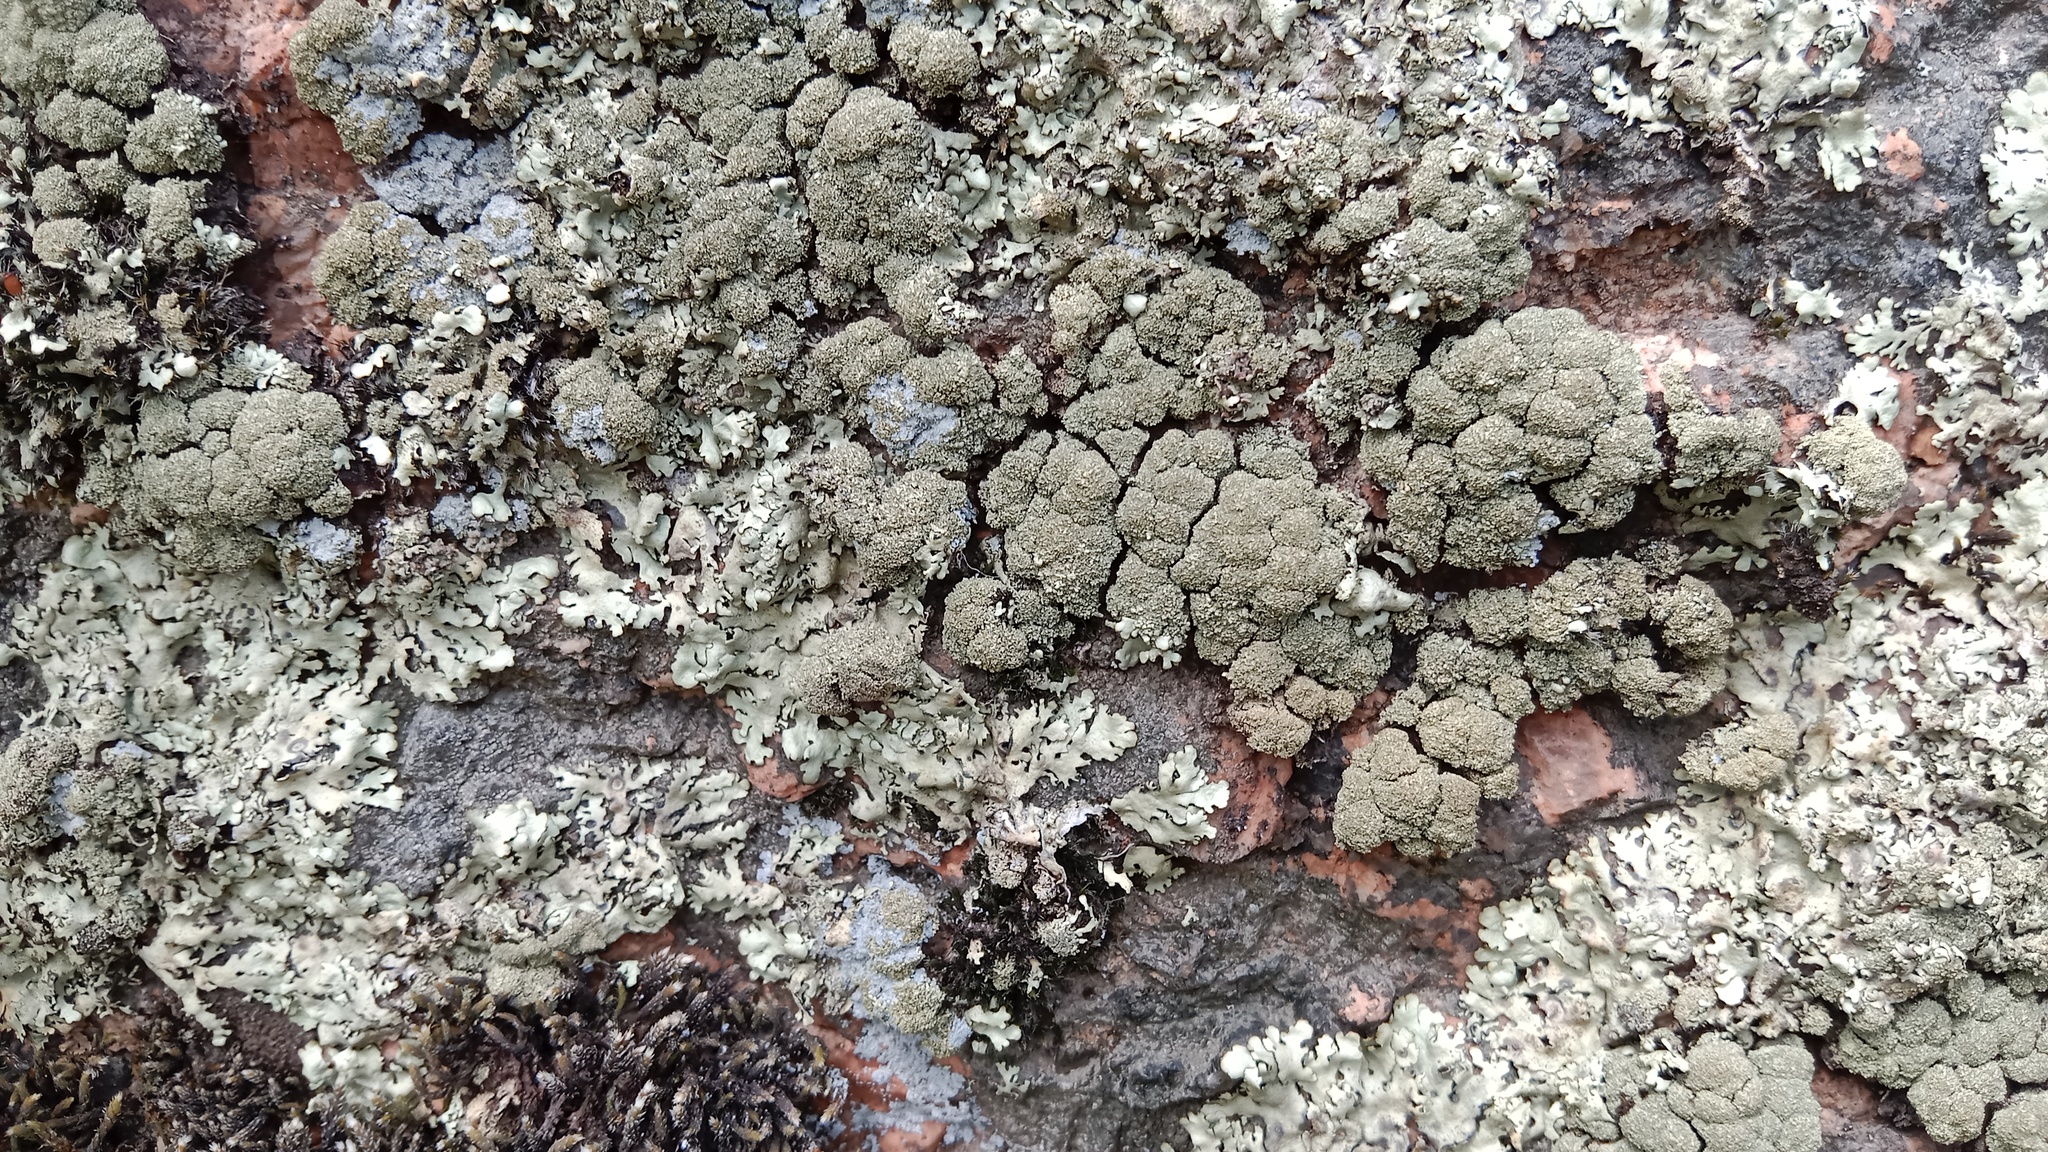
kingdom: Fungi
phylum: Ascomycota
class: Lecanoromycetes
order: Lecanorales
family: Parmeliaceae
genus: Xanthoparmelia
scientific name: Xanthoparmelia conspersa
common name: Peppered rock shield
